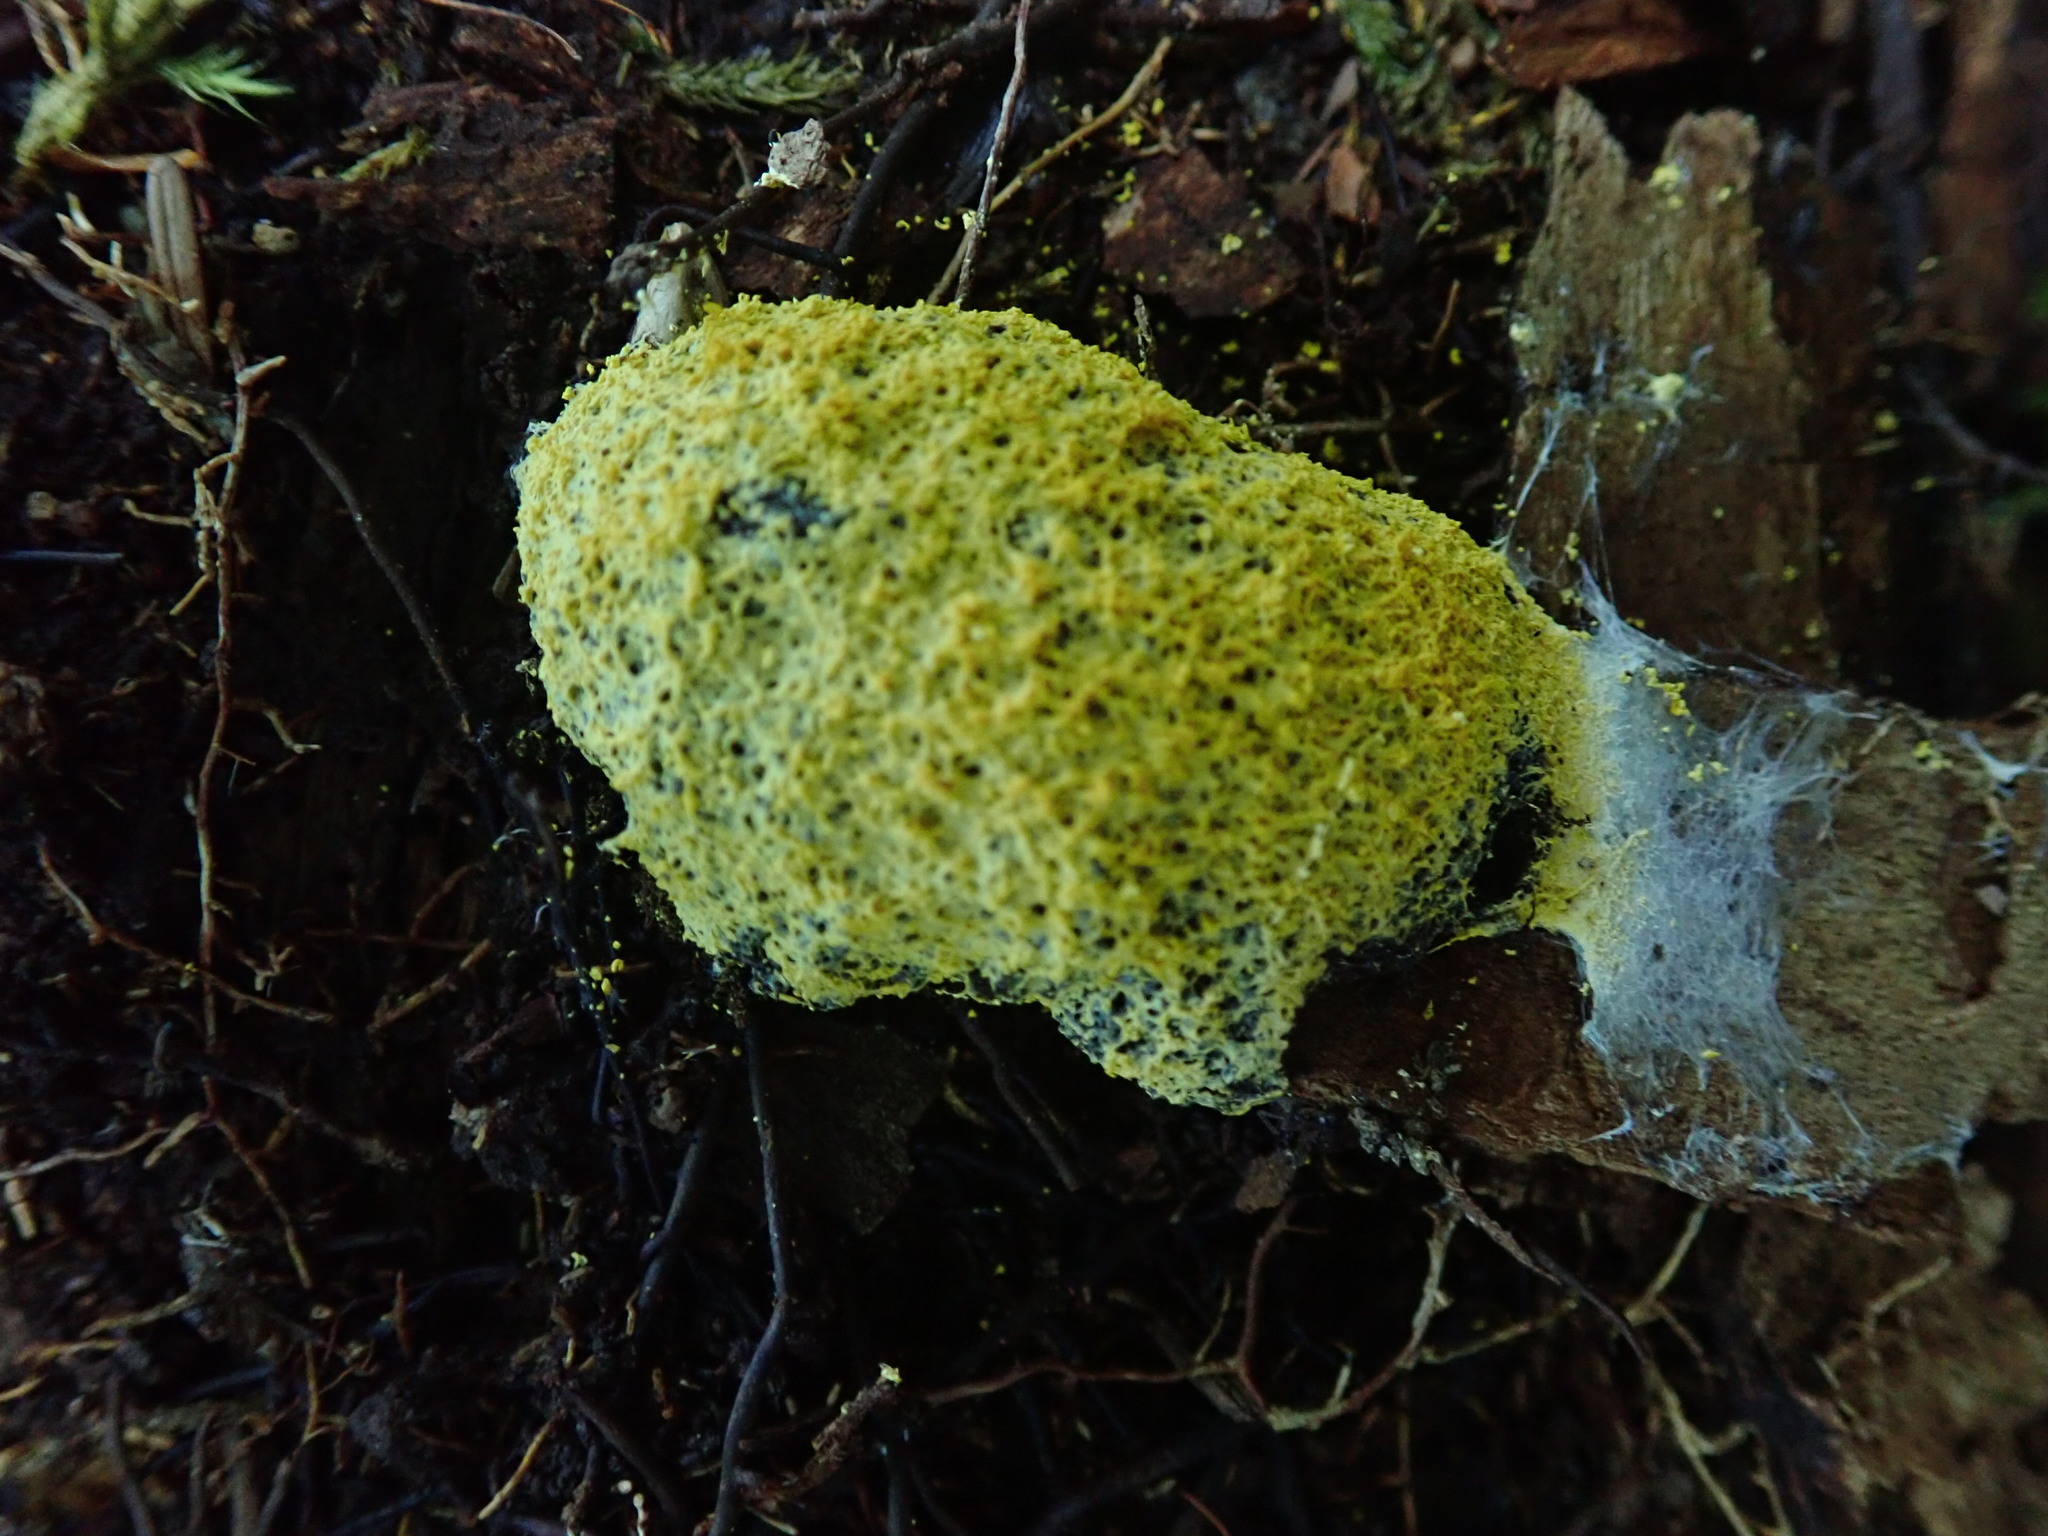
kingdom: Protozoa
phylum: Mycetozoa
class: Myxomycetes
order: Physarales
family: Physaraceae
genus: Fuligo
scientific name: Fuligo septica
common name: Dog vomit slime mold
